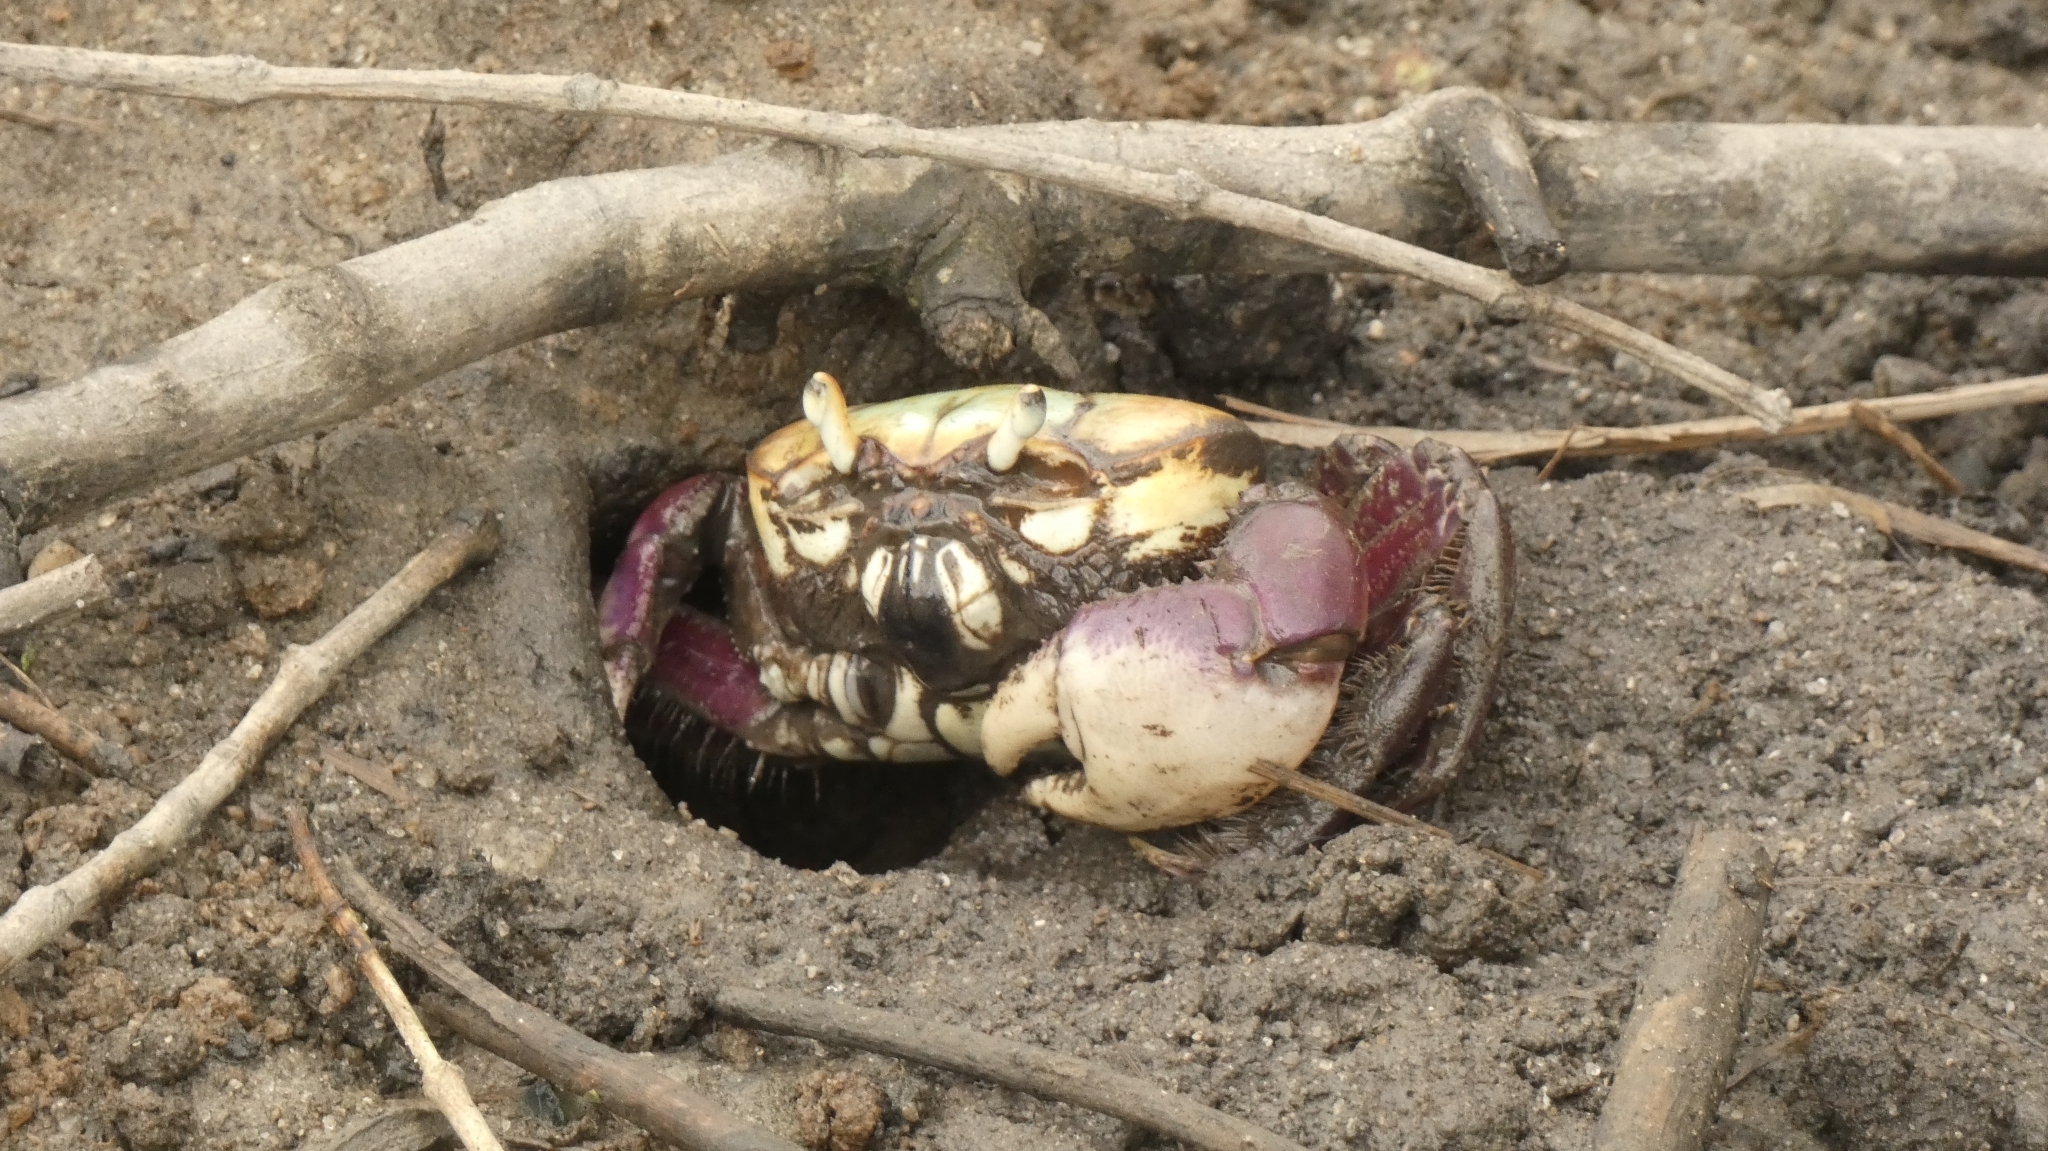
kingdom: Animalia
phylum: Arthropoda
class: Malacostraca
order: Decapoda
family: Ocypodidae
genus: Ucides
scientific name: Ucides cordatus
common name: Swamp ghost crab
